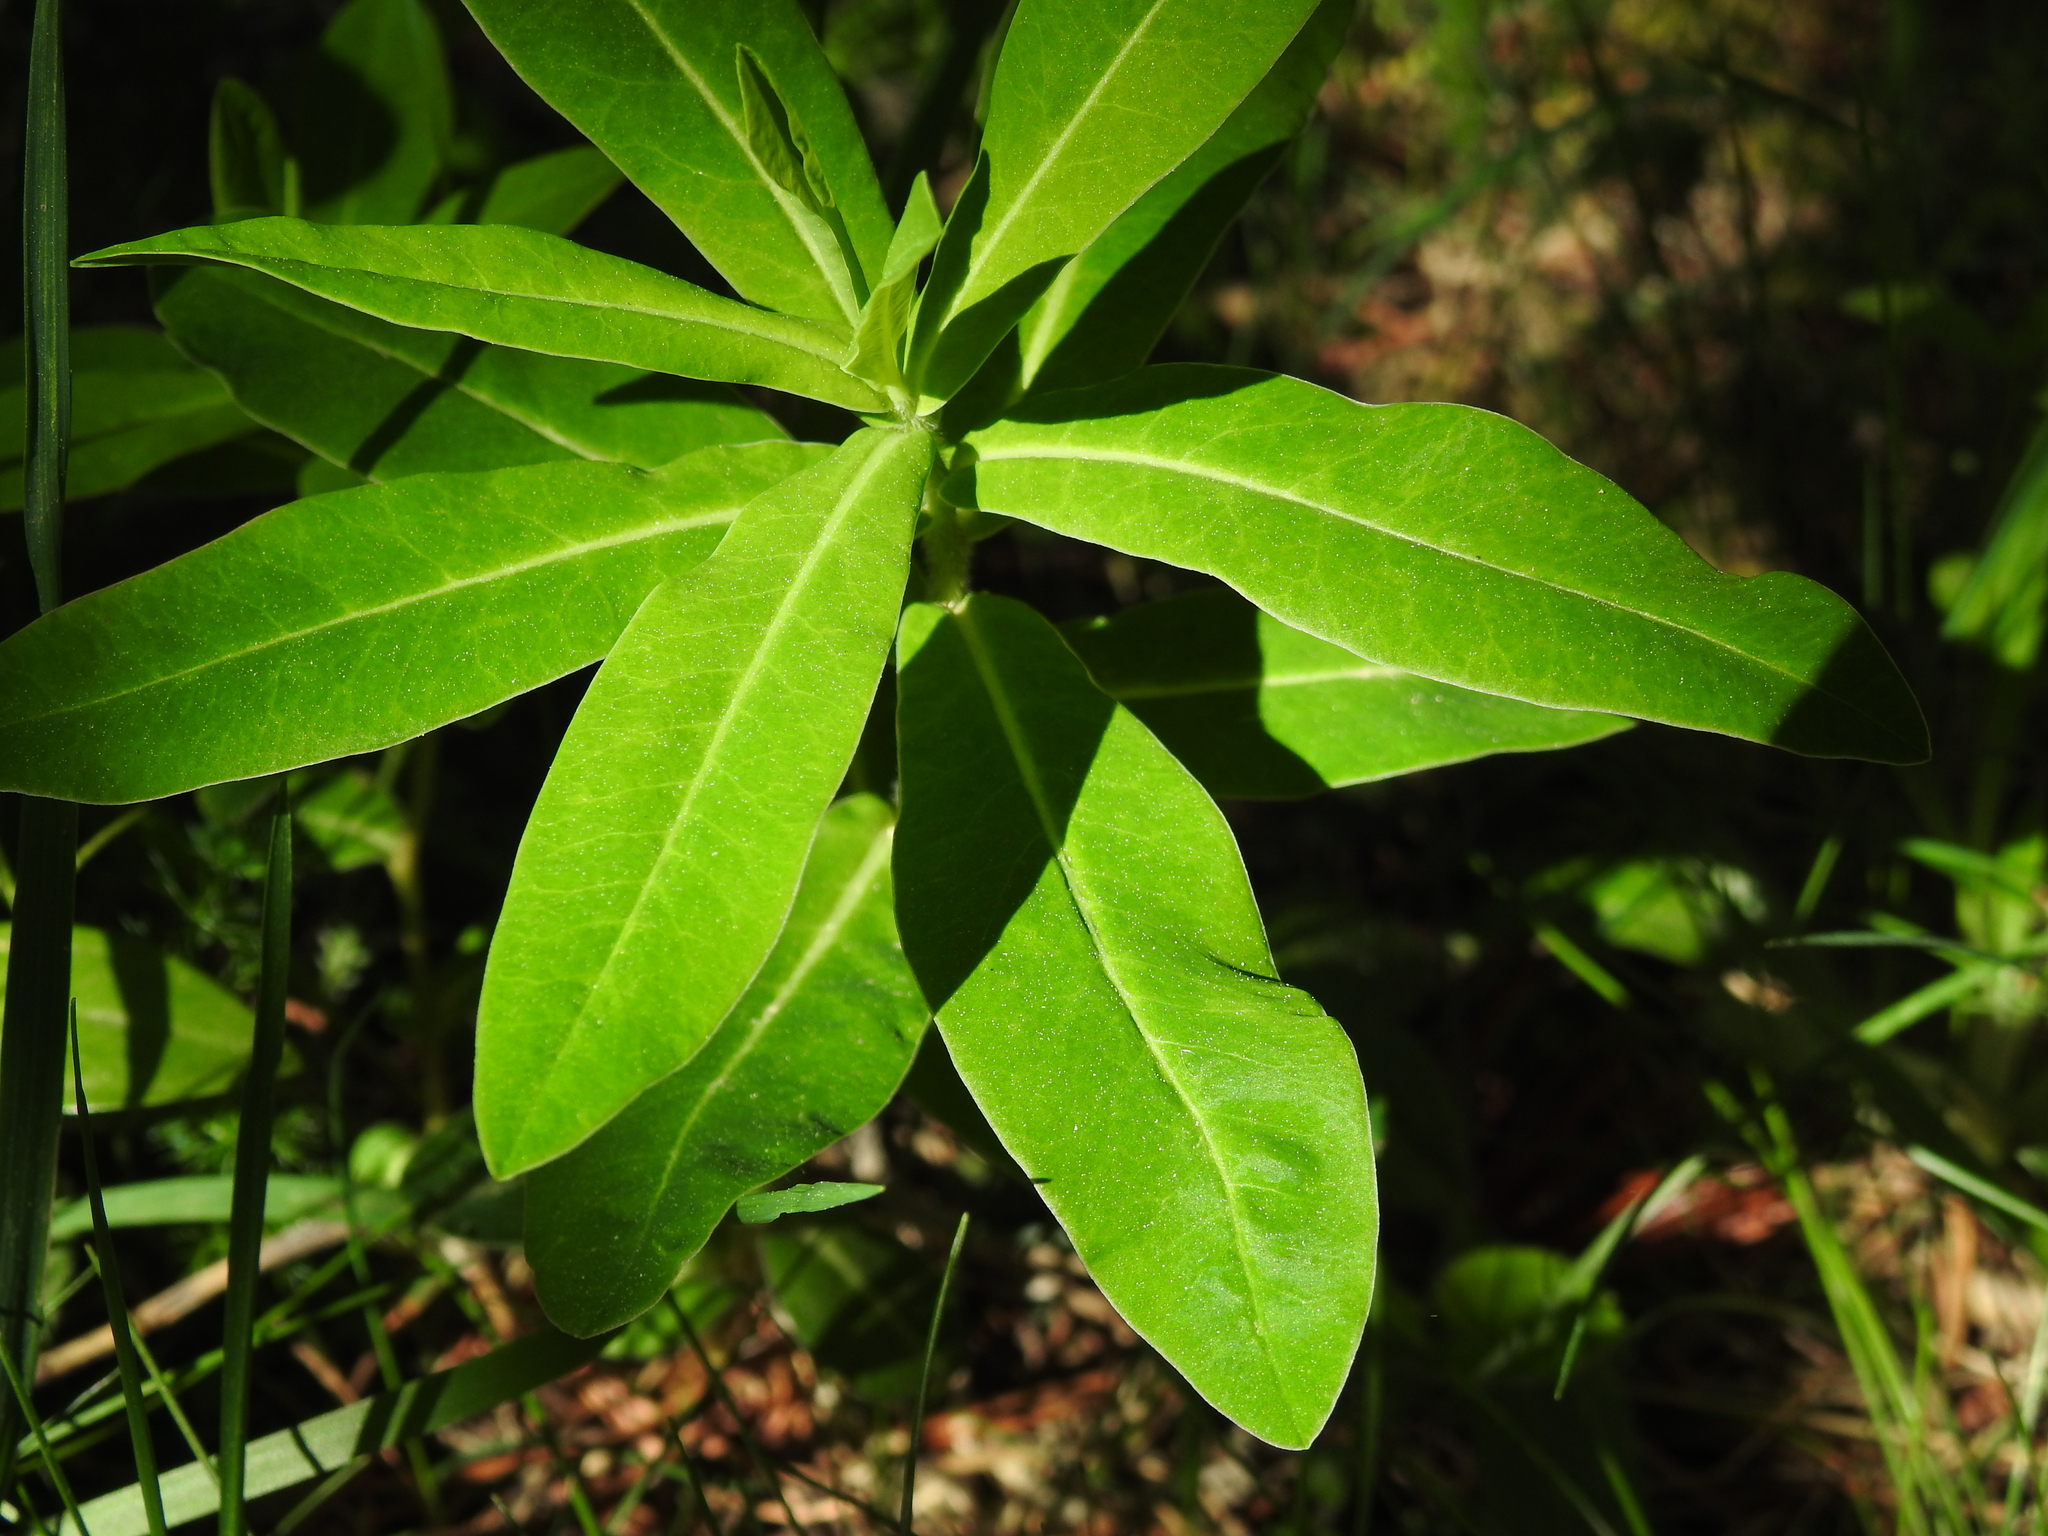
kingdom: Plantae
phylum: Tracheophyta
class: Magnoliopsida
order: Malpighiales
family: Euphorbiaceae
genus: Euphorbia
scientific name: Euphorbia hyberna
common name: Irish spurge
